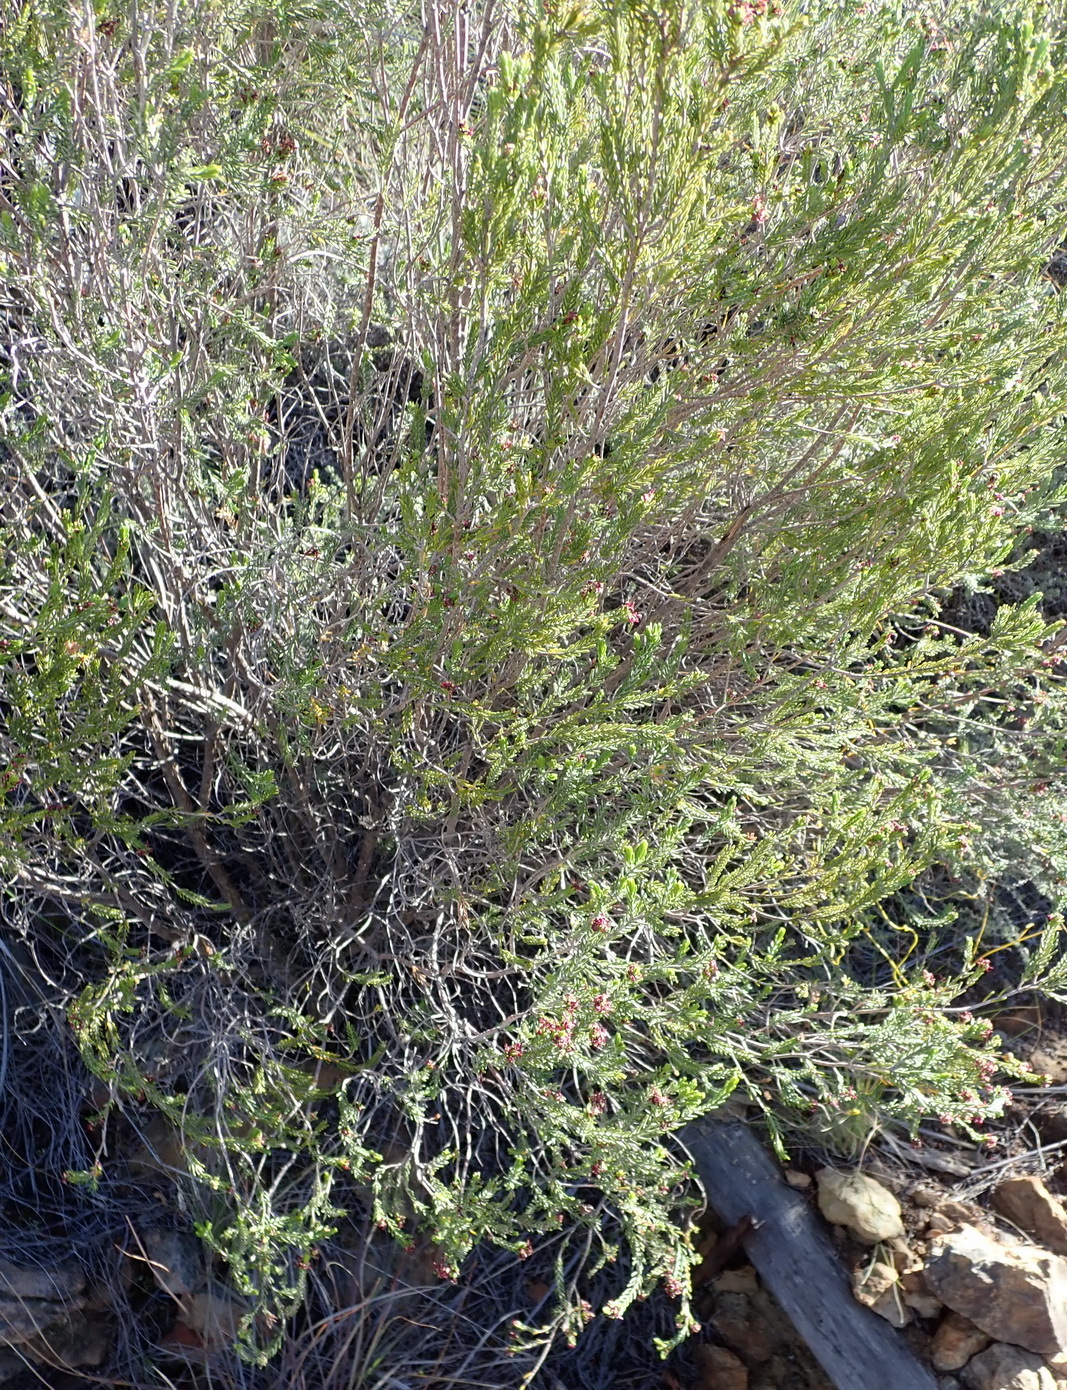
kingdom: Plantae
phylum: Tracheophyta
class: Magnoliopsida
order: Malvales
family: Thymelaeaceae
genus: Passerina
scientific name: Passerina obtusifolia
